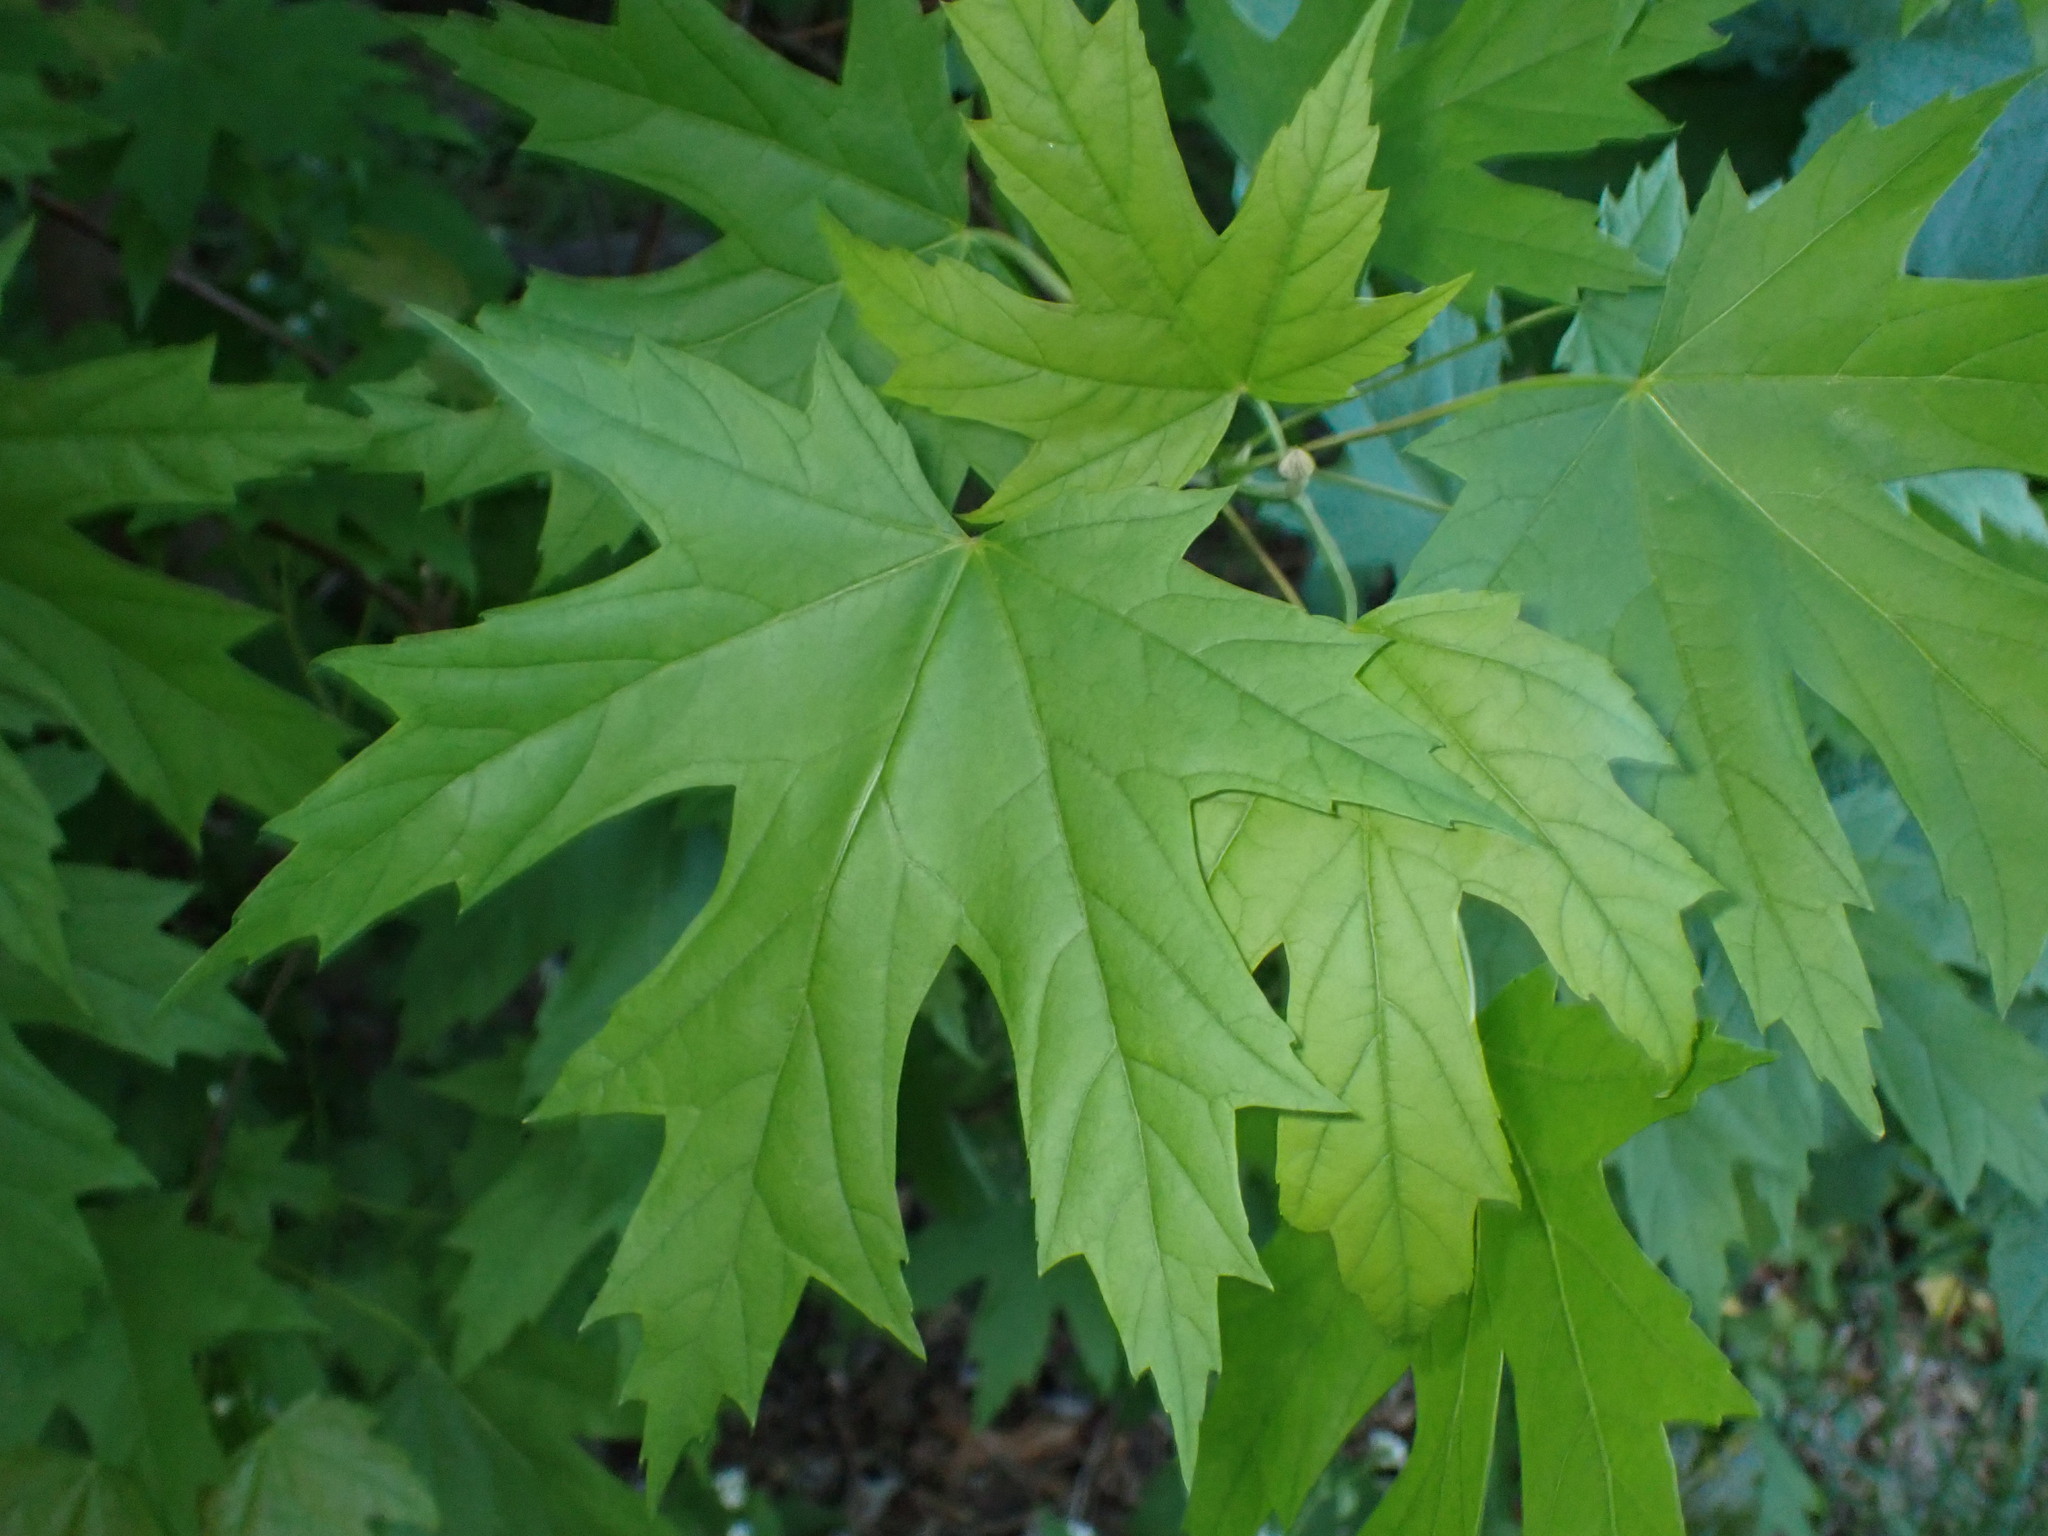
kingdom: Plantae
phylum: Tracheophyta
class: Magnoliopsida
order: Sapindales
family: Sapindaceae
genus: Acer
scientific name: Acer saccharinum
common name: Silver maple
